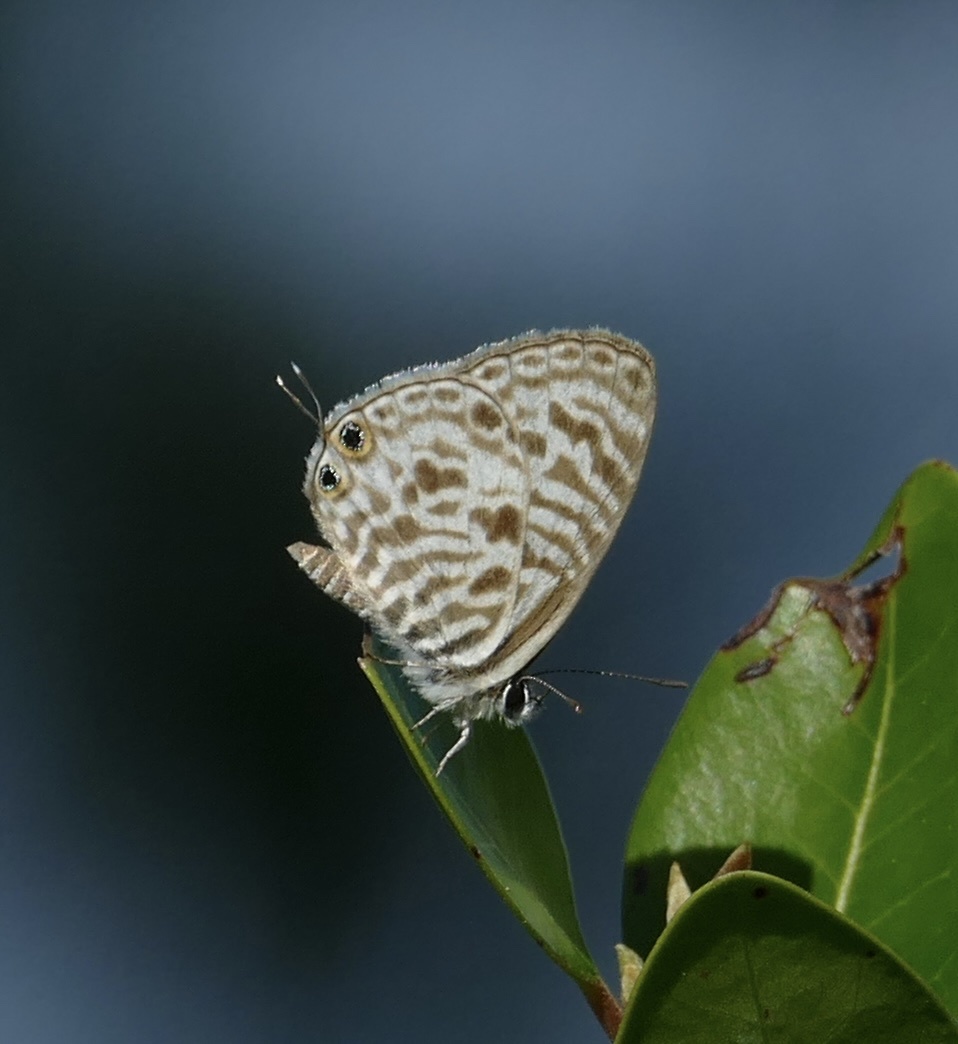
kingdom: Animalia
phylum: Arthropoda
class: Insecta
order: Lepidoptera
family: Lycaenidae
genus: Leptotes
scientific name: Leptotes
